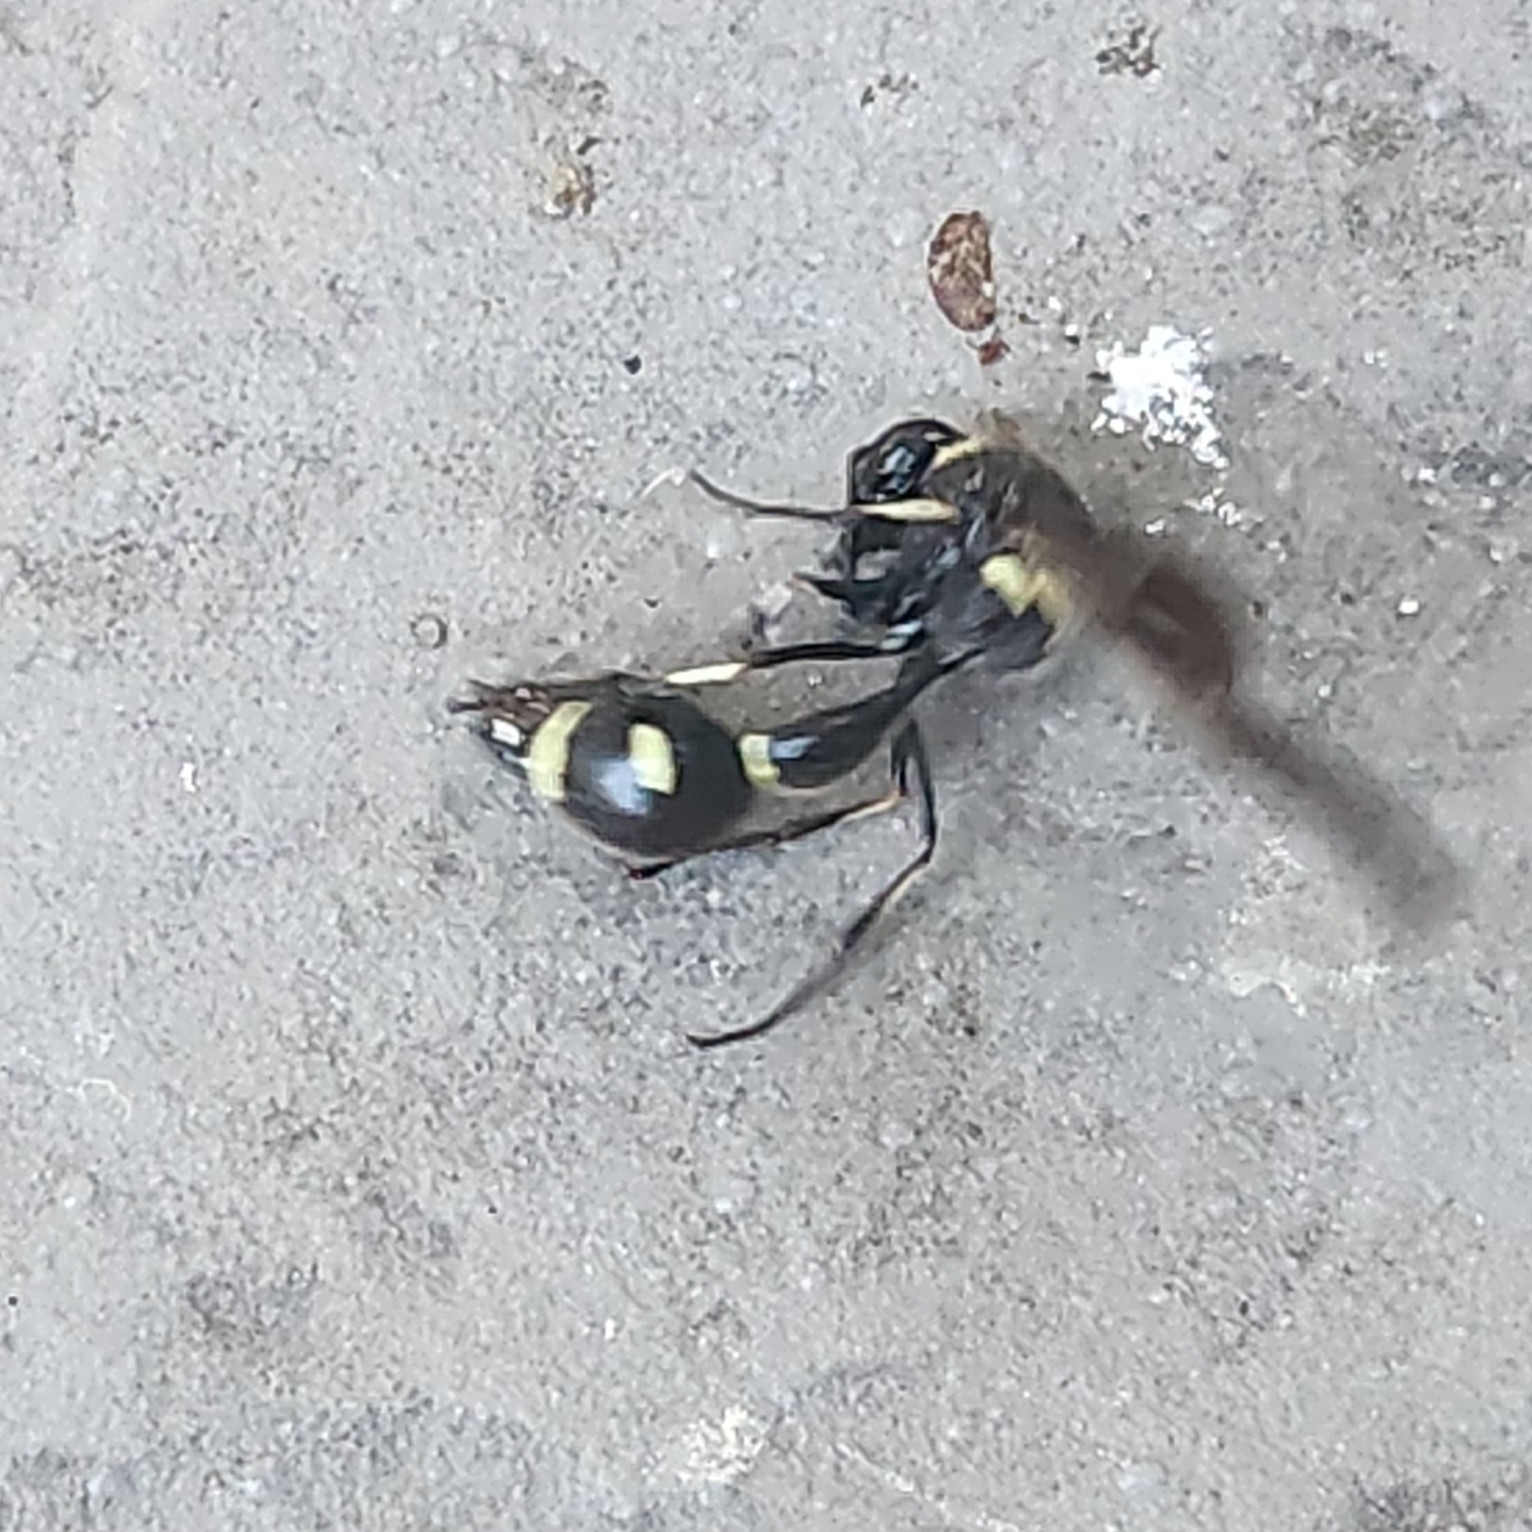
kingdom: Animalia
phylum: Arthropoda
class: Insecta
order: Hymenoptera
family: Vespidae
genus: Eumenes
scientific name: Eumenes fraternus
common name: Fraternal potter wasp
